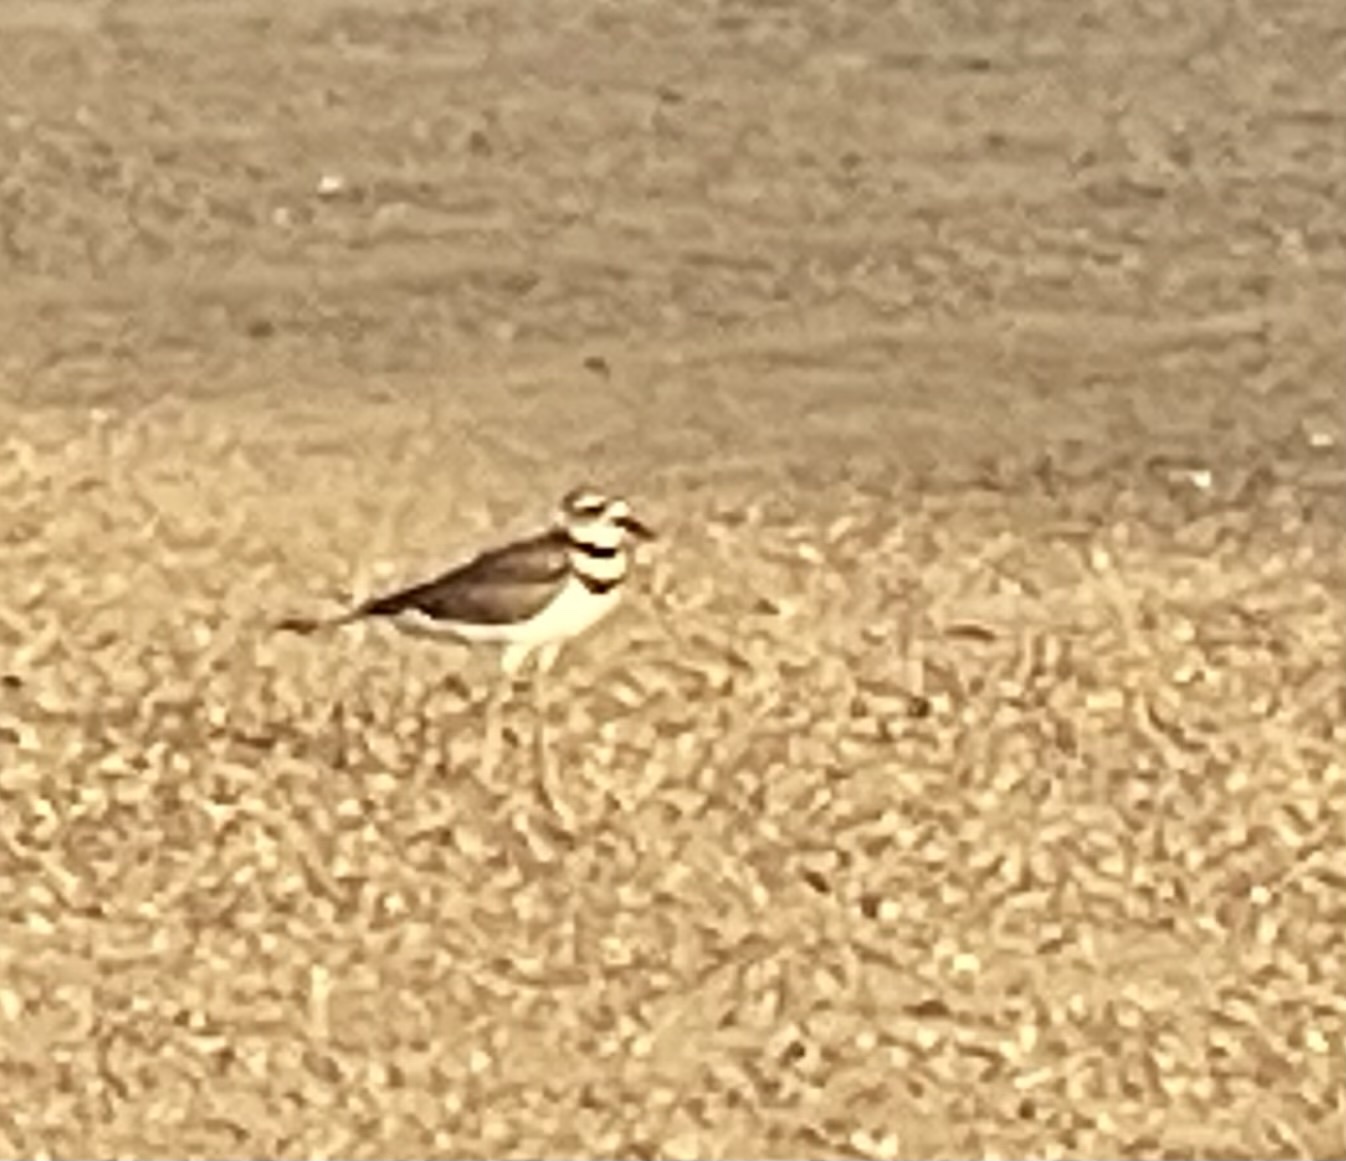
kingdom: Animalia
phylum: Chordata
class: Aves
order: Charadriiformes
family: Charadriidae
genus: Charadrius
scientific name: Charadrius vociferus
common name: Killdeer
